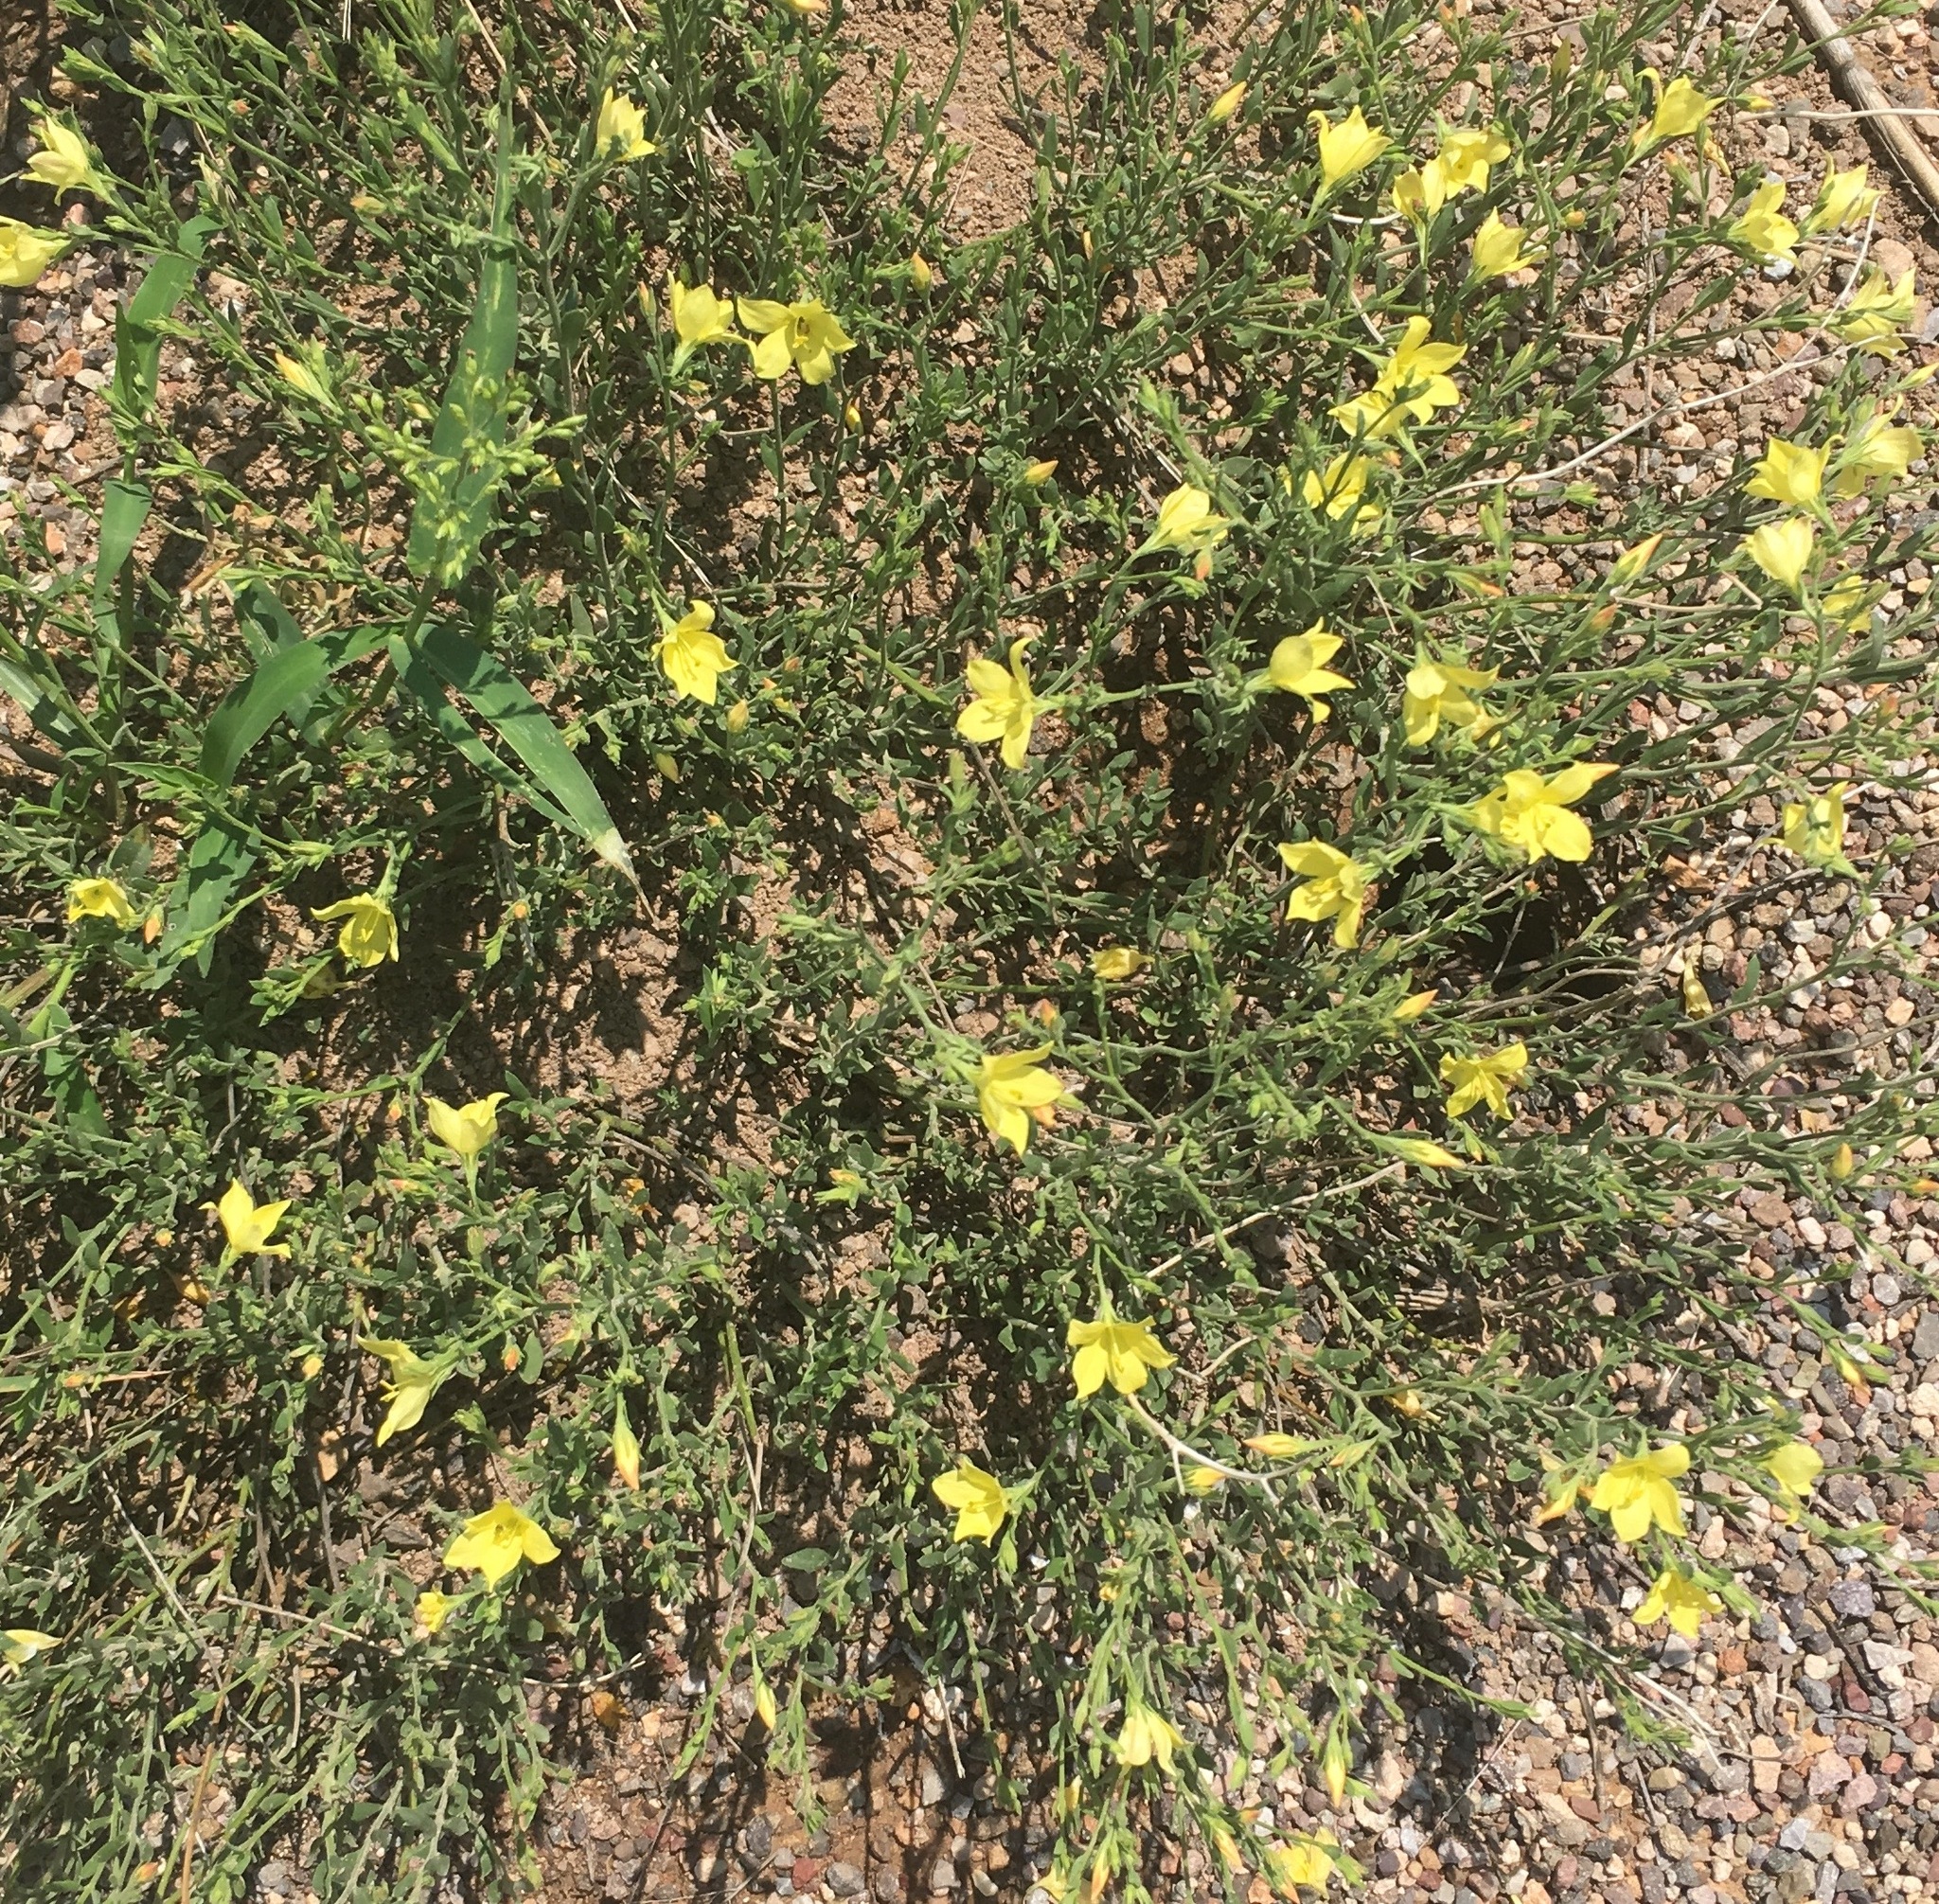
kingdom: Plantae
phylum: Tracheophyta
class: Magnoliopsida
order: Lamiales
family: Oleaceae
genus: Menodora
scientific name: Menodora scabra
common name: Rough menodora
